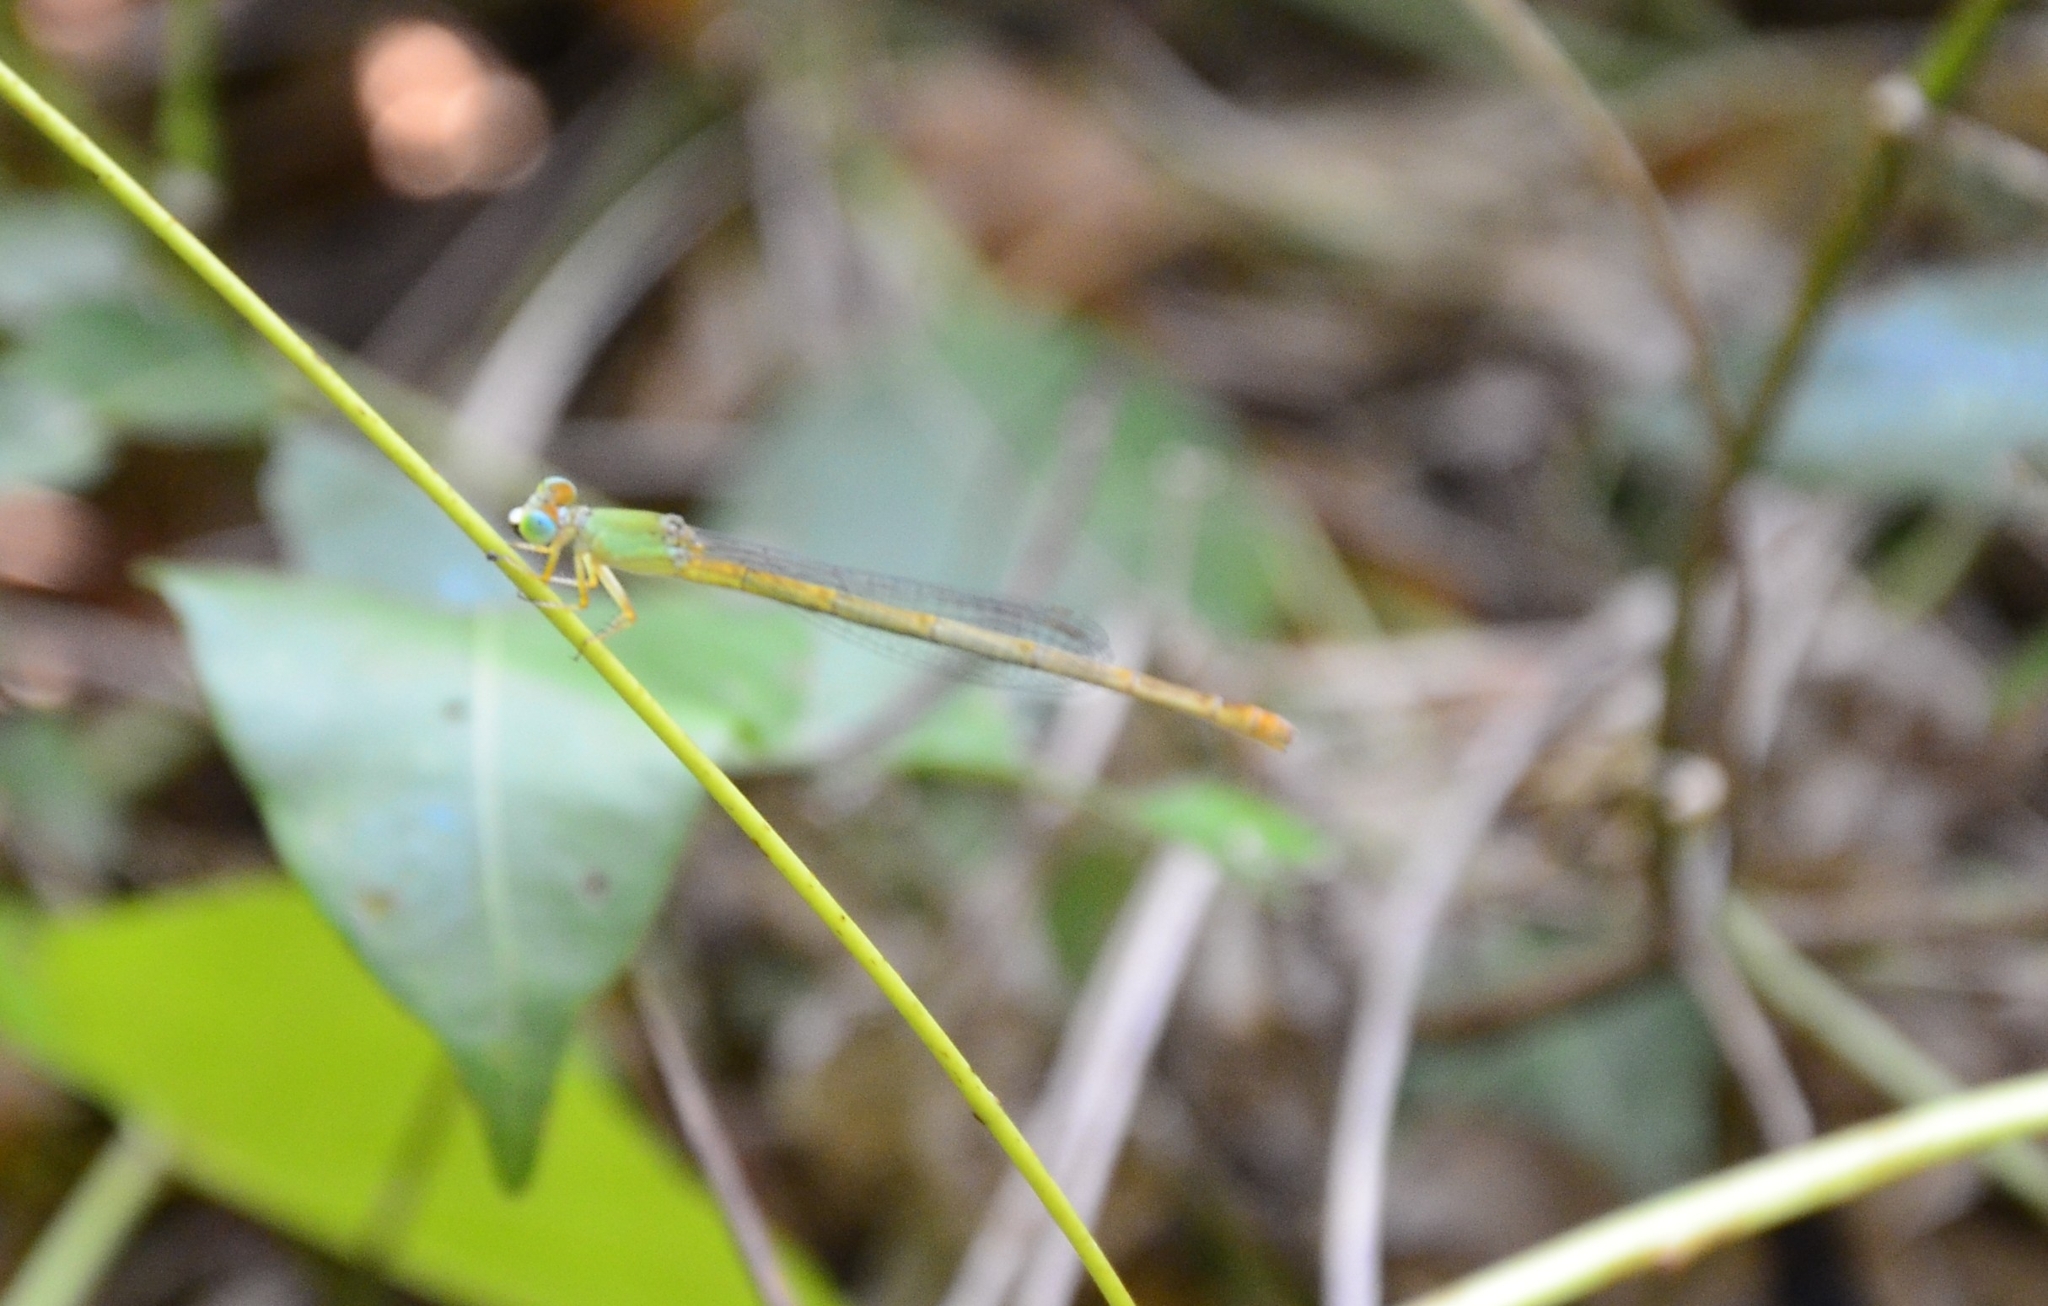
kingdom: Animalia
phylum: Arthropoda
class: Insecta
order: Odonata
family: Coenagrionidae
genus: Ceriagrion
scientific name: Ceriagrion coromandelianum
